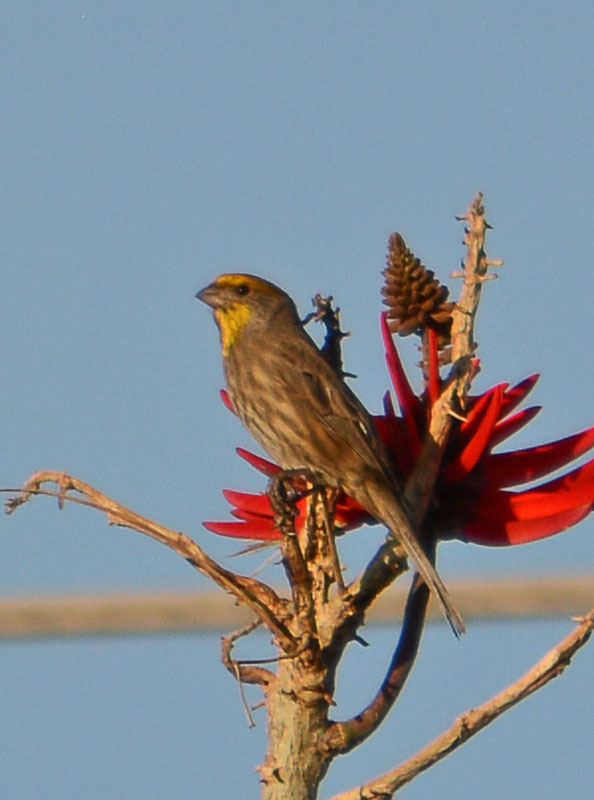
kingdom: Animalia
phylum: Chordata
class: Aves
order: Passeriformes
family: Fringillidae
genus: Haemorhous
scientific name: Haemorhous mexicanus
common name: House finch
